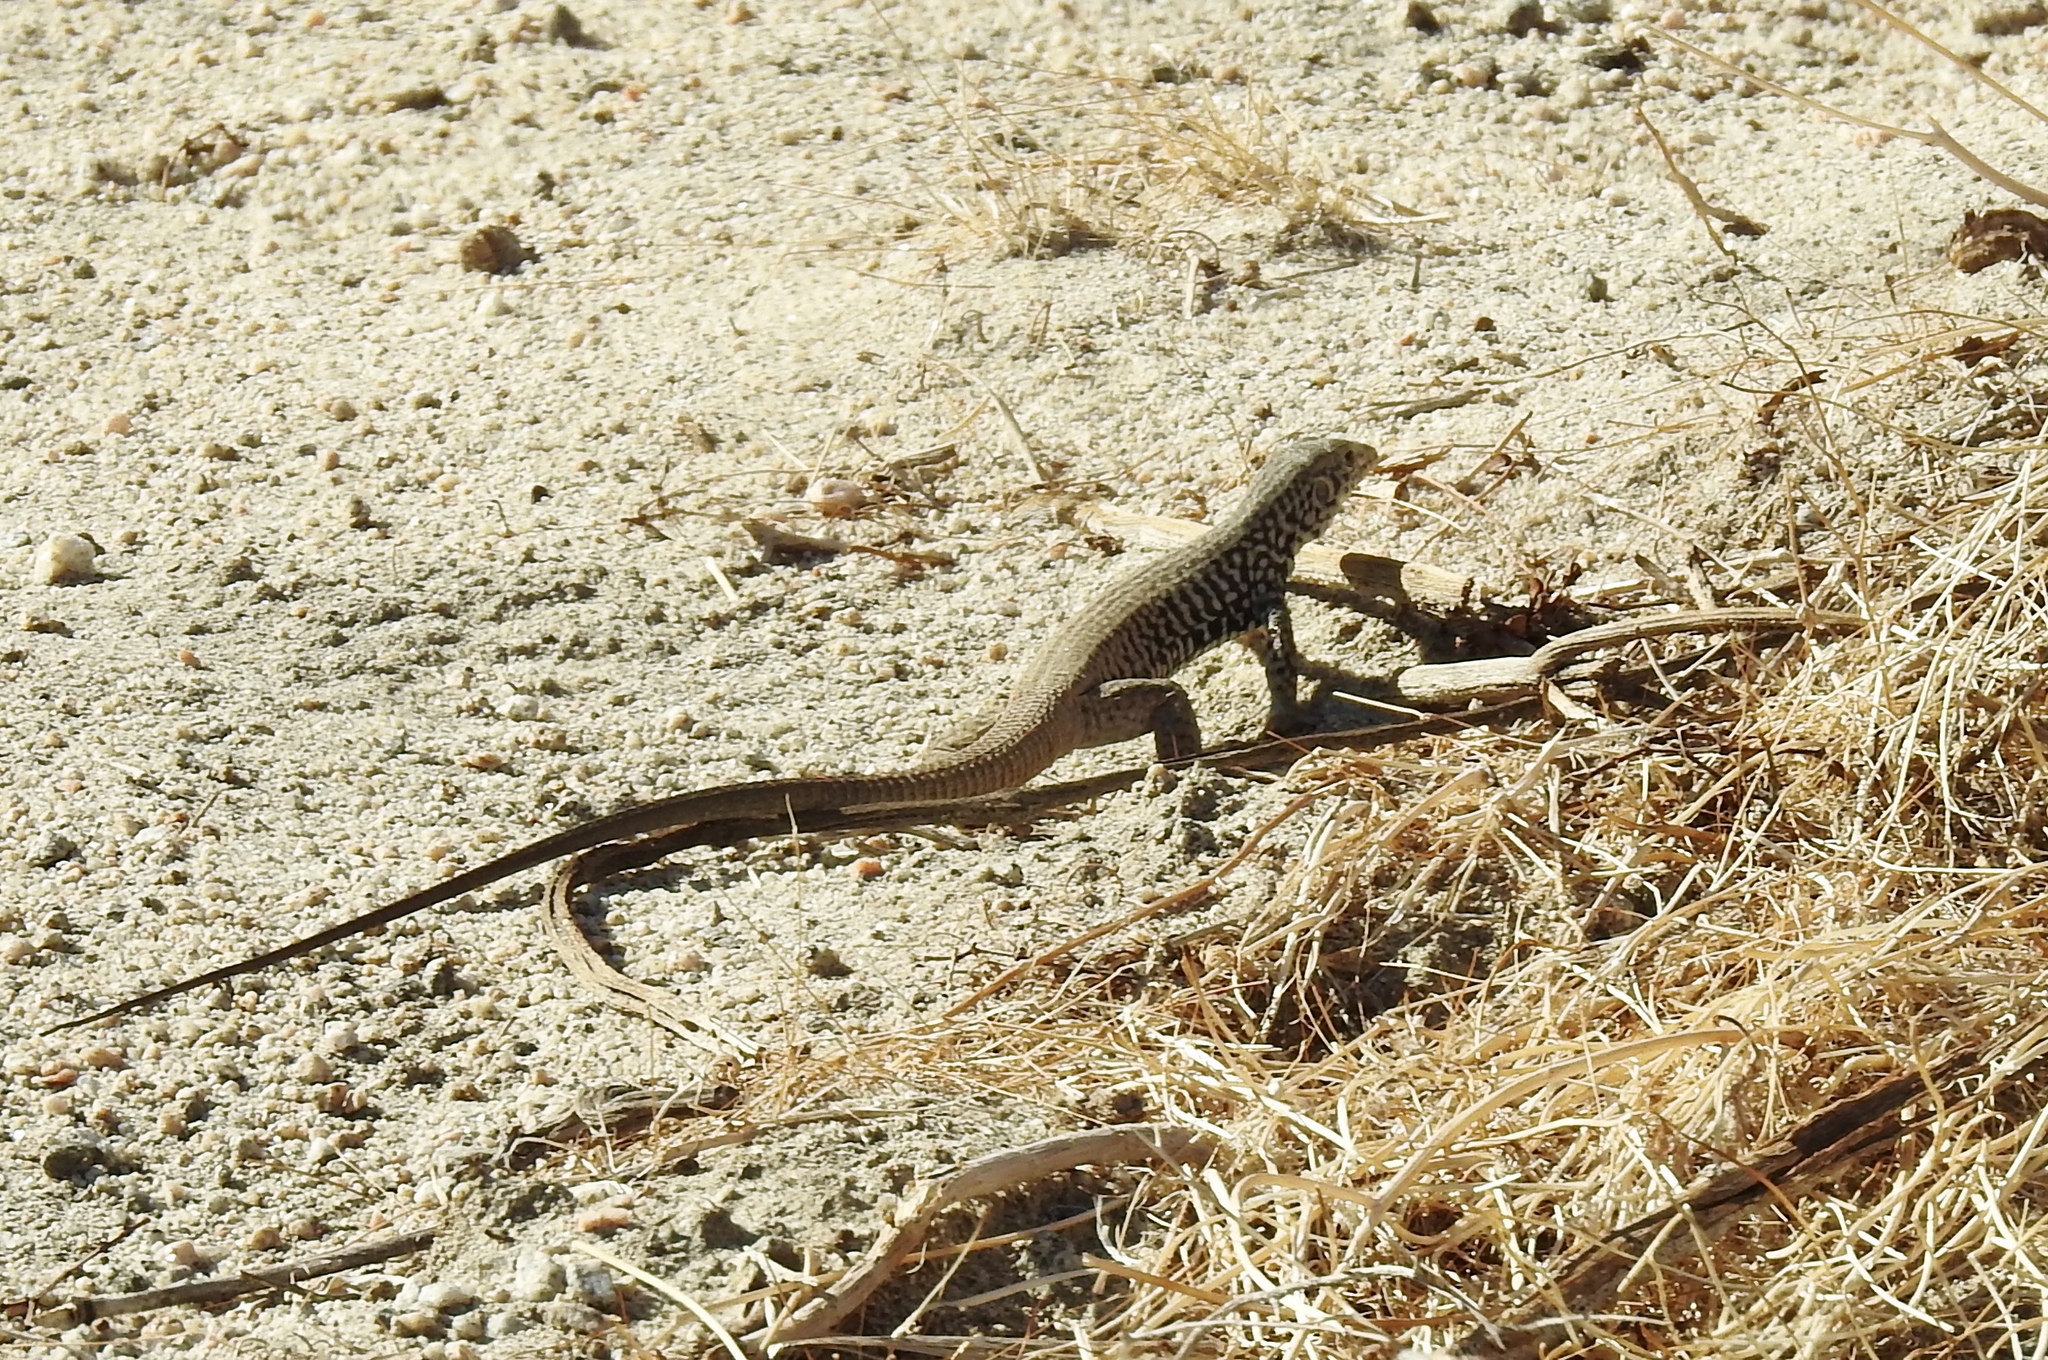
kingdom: Animalia
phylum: Chordata
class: Squamata
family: Teiidae
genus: Aspidoscelis
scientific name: Aspidoscelis tigris
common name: Tiger whiptail
